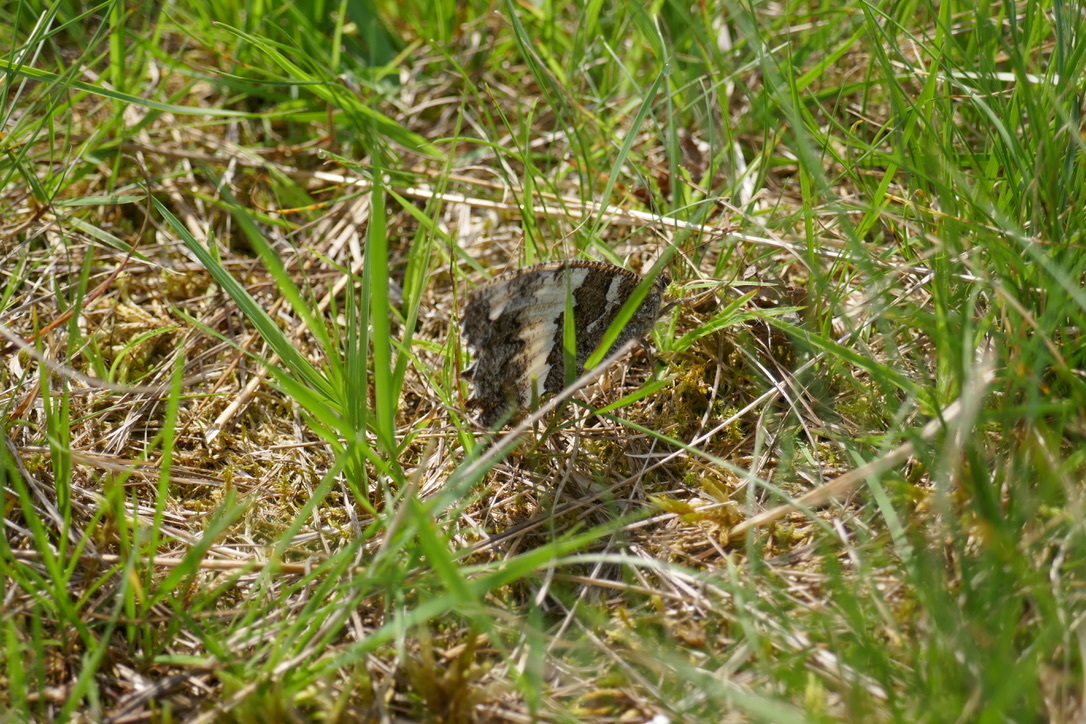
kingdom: Animalia
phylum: Arthropoda
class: Insecta
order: Lepidoptera
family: Lycaenidae
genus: Loweia
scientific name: Loweia tityrus
